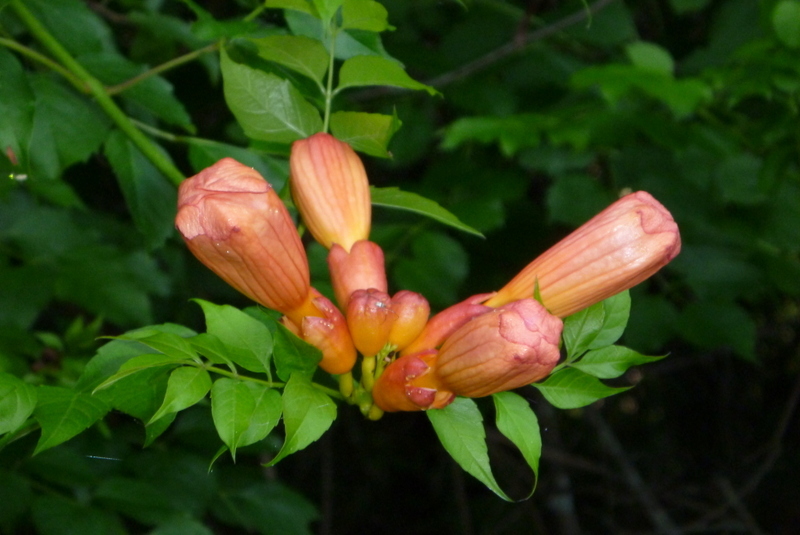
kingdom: Plantae
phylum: Tracheophyta
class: Magnoliopsida
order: Lamiales
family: Bignoniaceae
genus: Campsis
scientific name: Campsis radicans
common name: Trumpet-creeper
